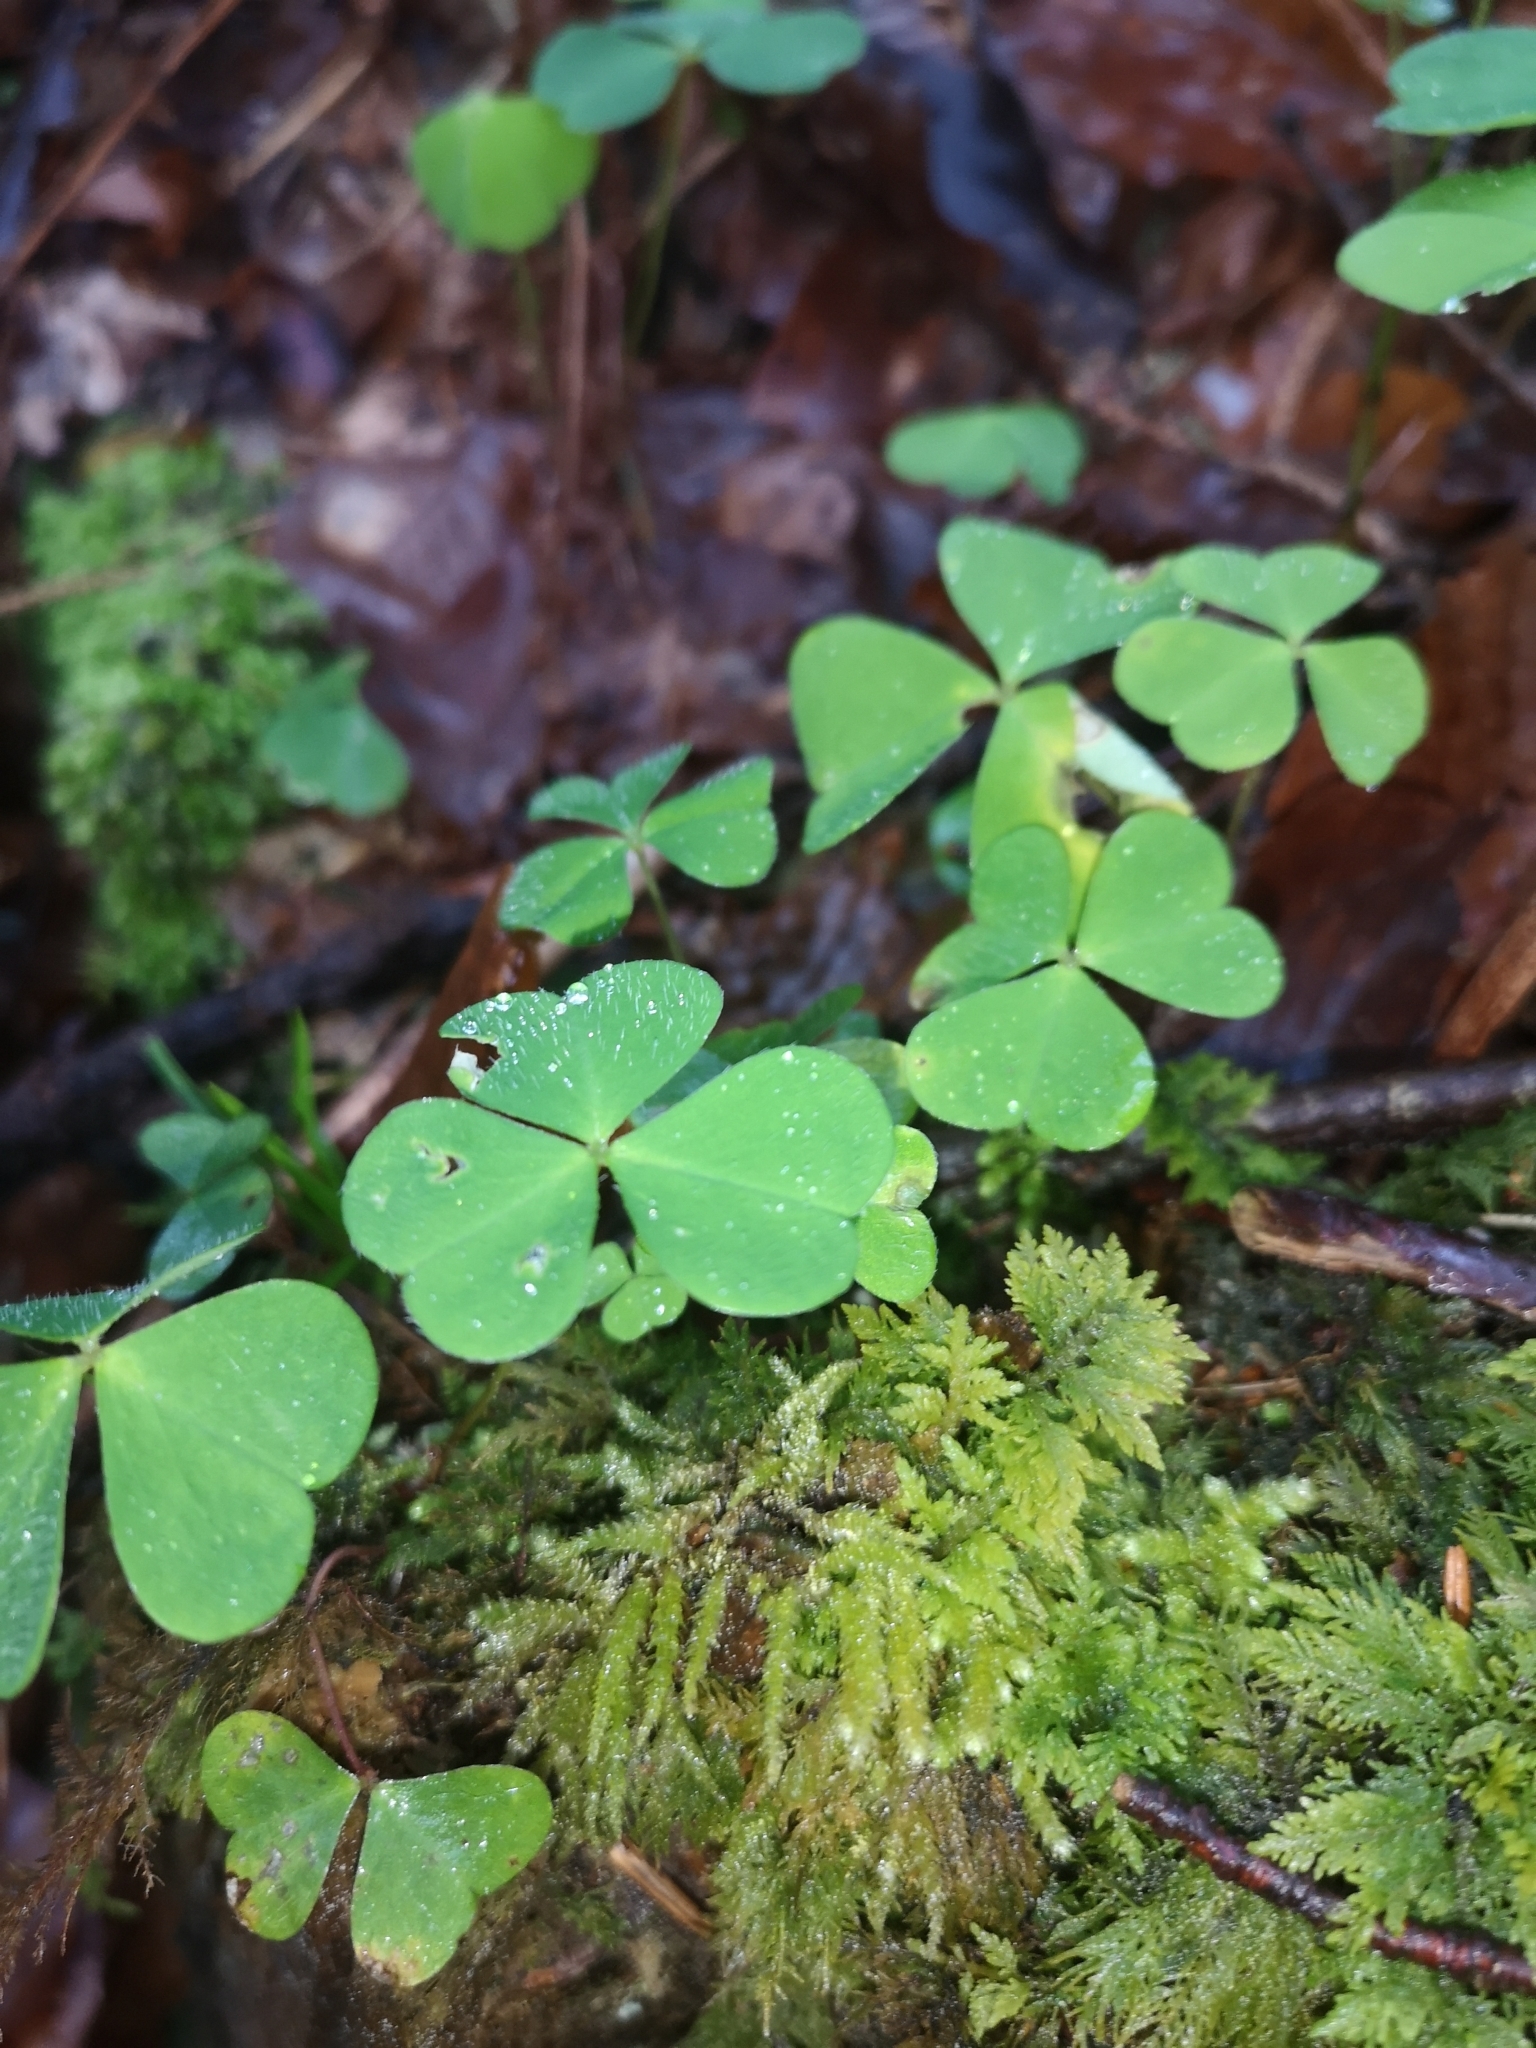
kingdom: Plantae
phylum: Tracheophyta
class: Magnoliopsida
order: Oxalidales
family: Oxalidaceae
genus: Oxalis
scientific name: Oxalis acetosella
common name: Wood-sorrel
